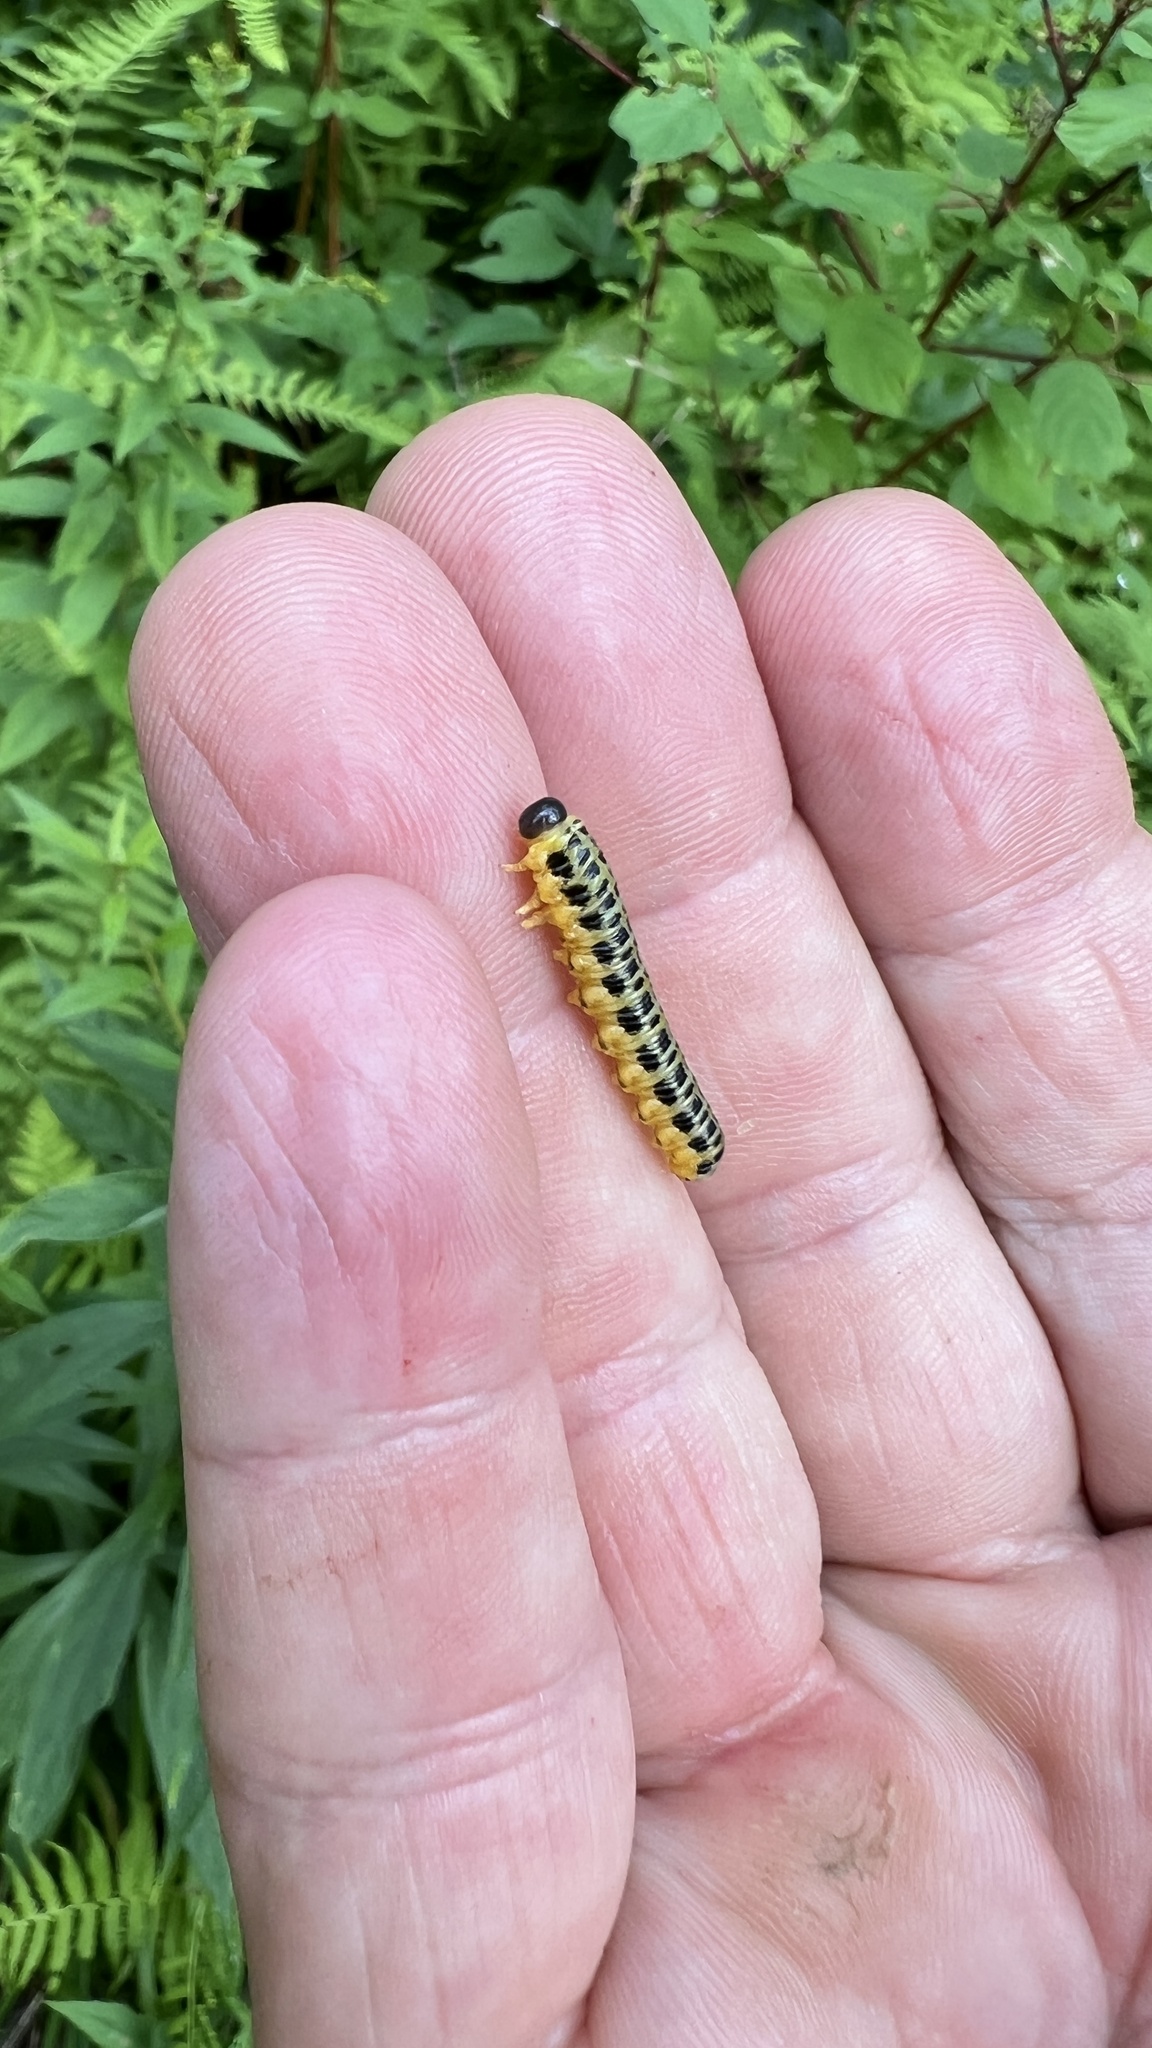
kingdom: Animalia
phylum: Arthropoda
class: Insecta
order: Hymenoptera
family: Tenthredinidae
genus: Macremphytus
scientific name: Macremphytus testaceus
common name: Dogwood sawfly
